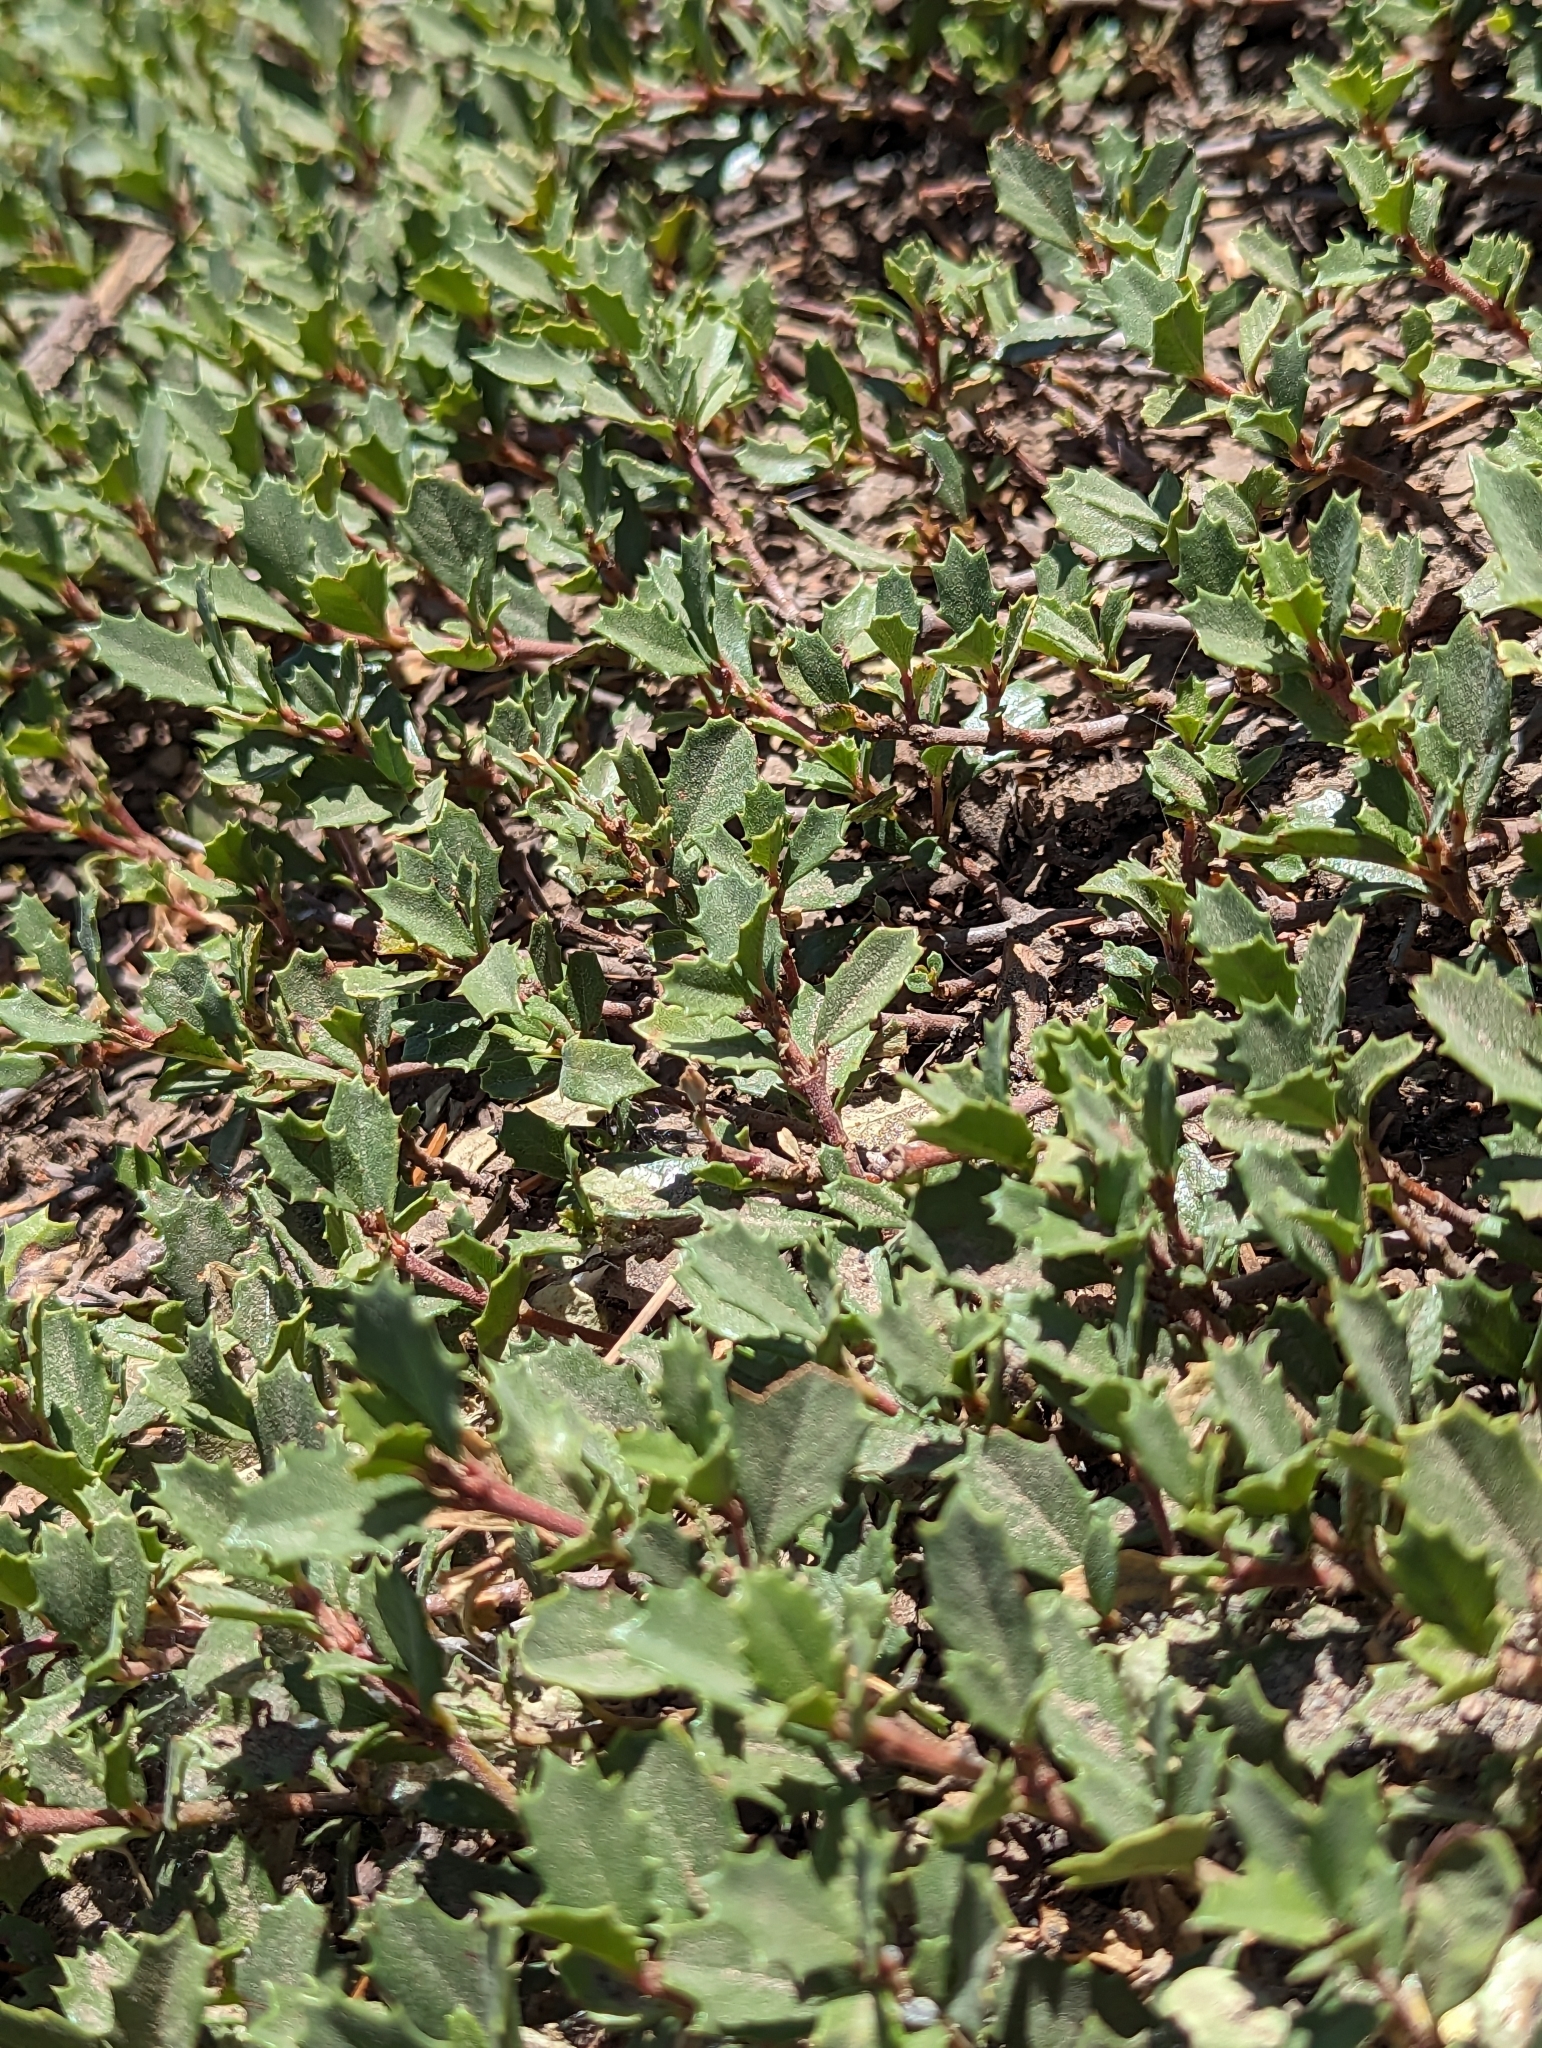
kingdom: Plantae
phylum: Tracheophyta
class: Magnoliopsida
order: Rosales
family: Rhamnaceae
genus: Ceanothus
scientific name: Ceanothus prostratus
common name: Mahala-mat
